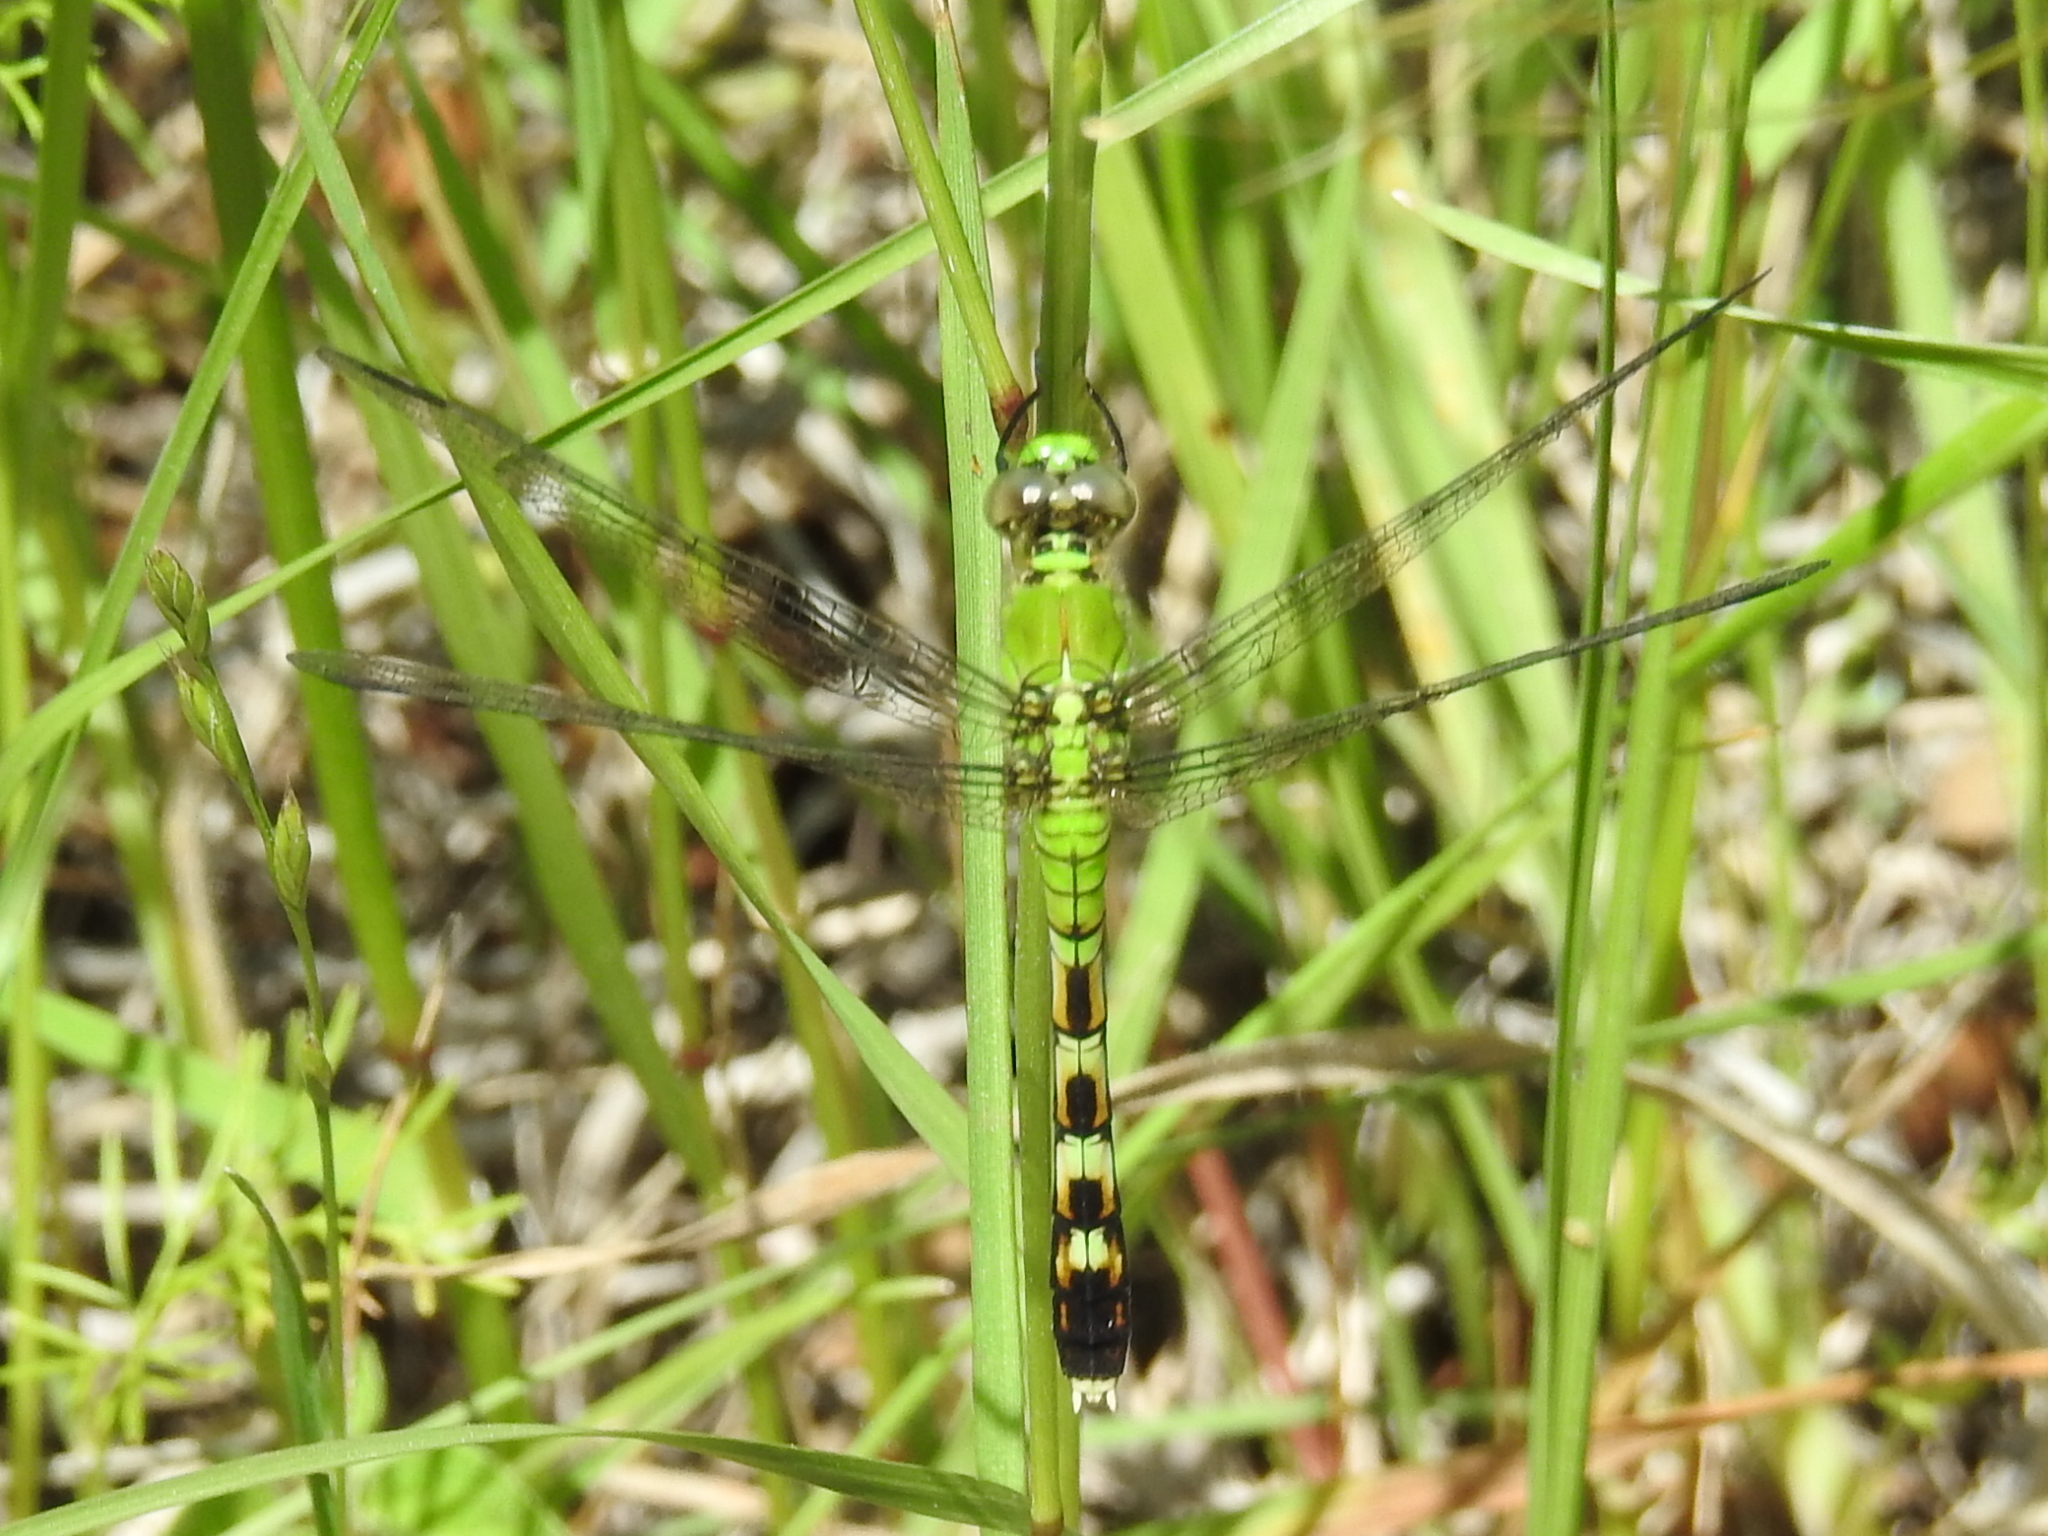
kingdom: Animalia
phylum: Arthropoda
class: Insecta
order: Odonata
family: Libellulidae
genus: Erythemis
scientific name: Erythemis simplicicollis
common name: Eastern pondhawk
